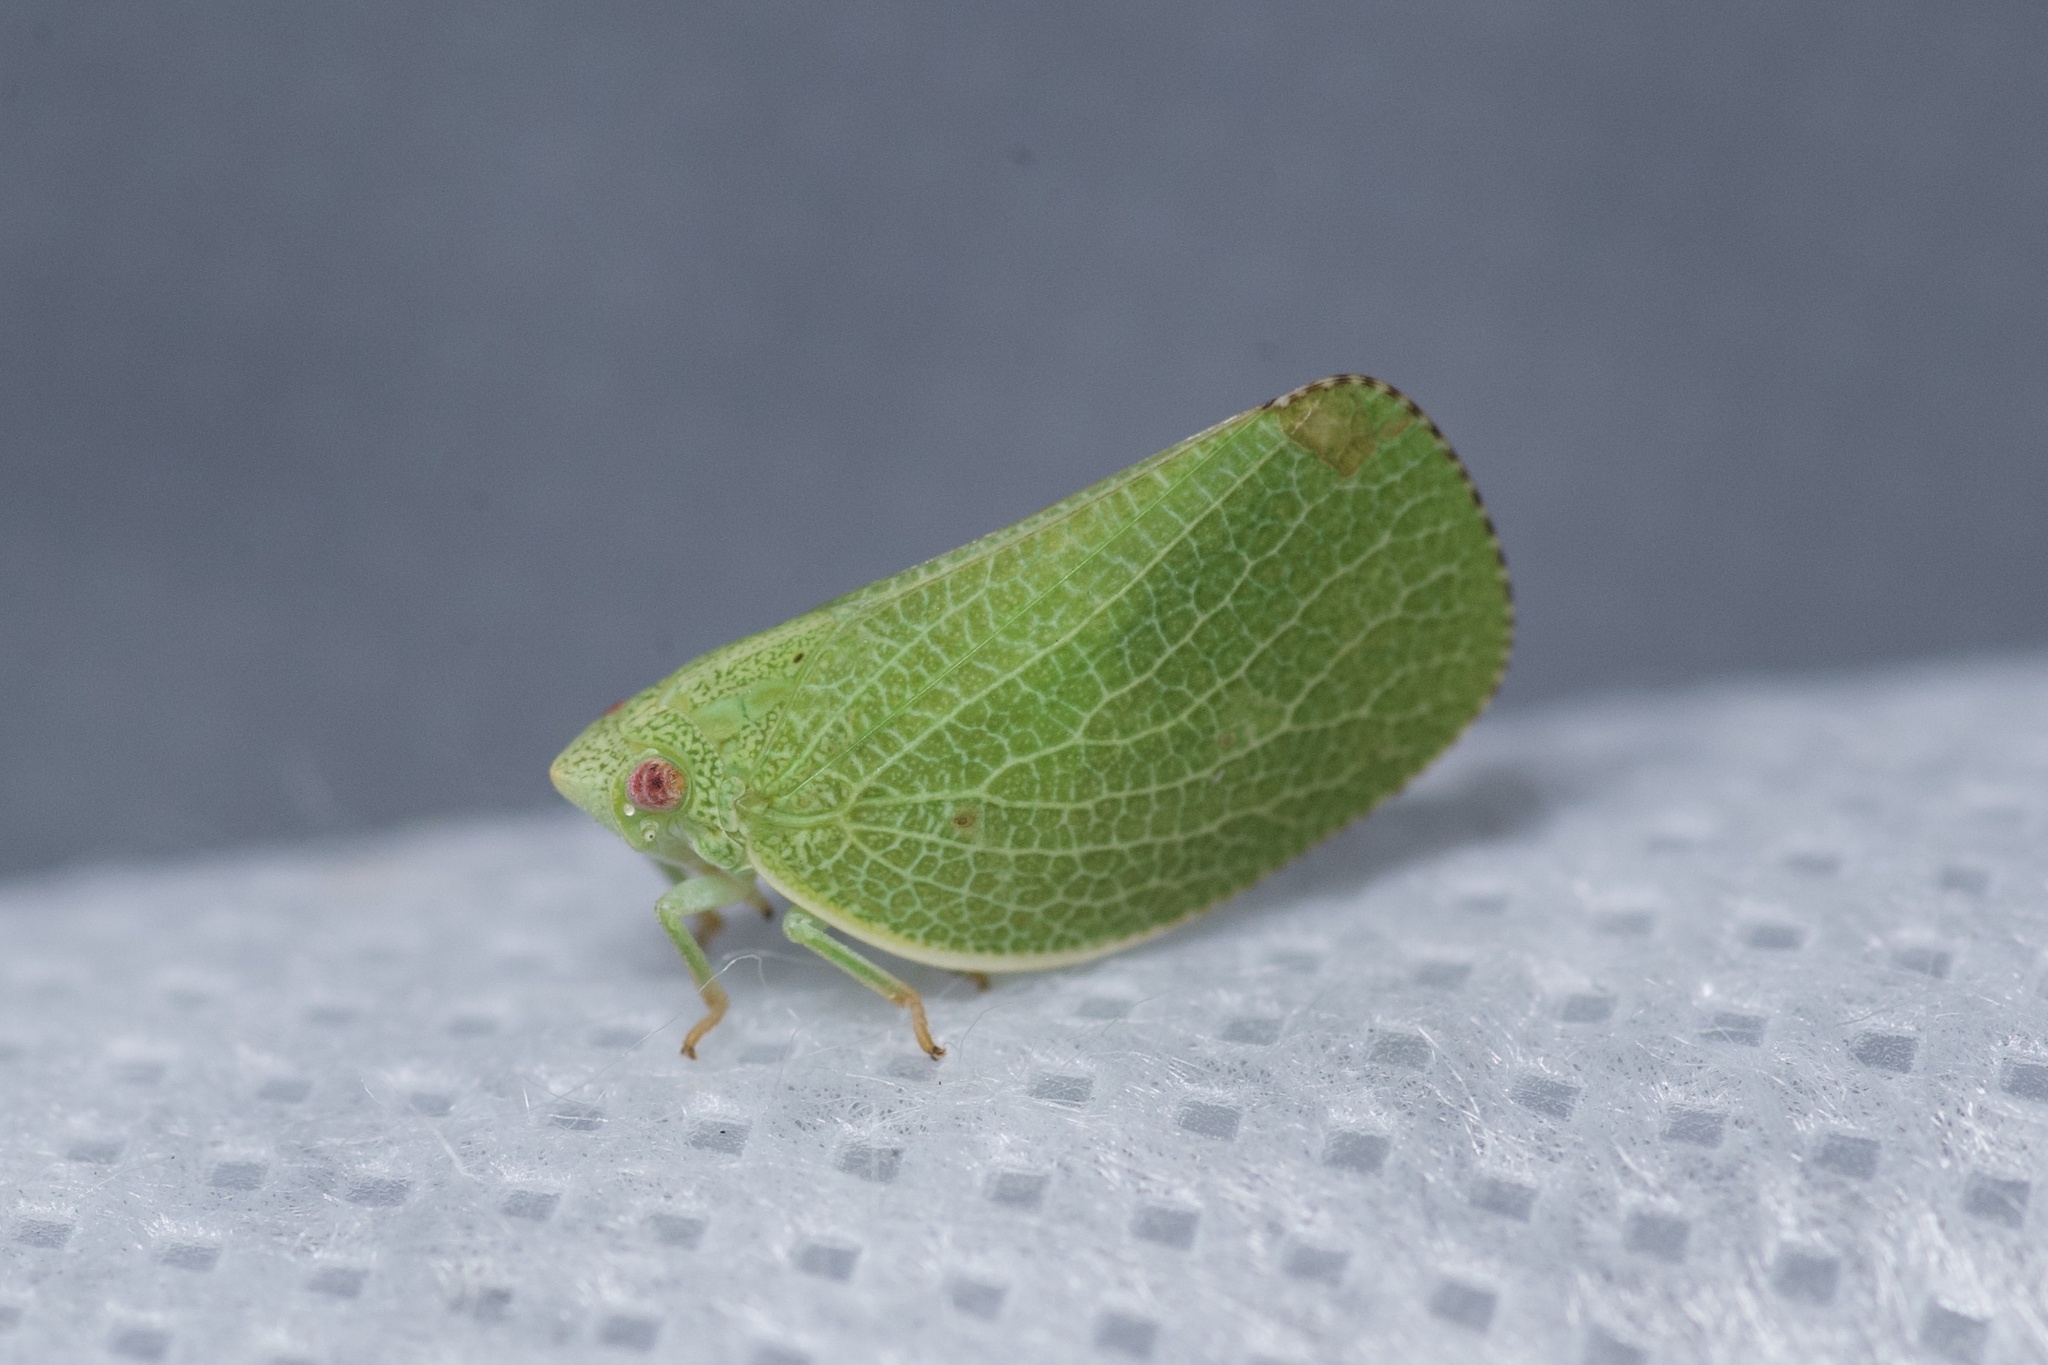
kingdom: Animalia
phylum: Arthropoda
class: Insecta
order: Hemiptera
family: Acanaloniidae
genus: Acanalonia
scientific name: Acanalonia conica
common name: Green cone-headed planthopper
